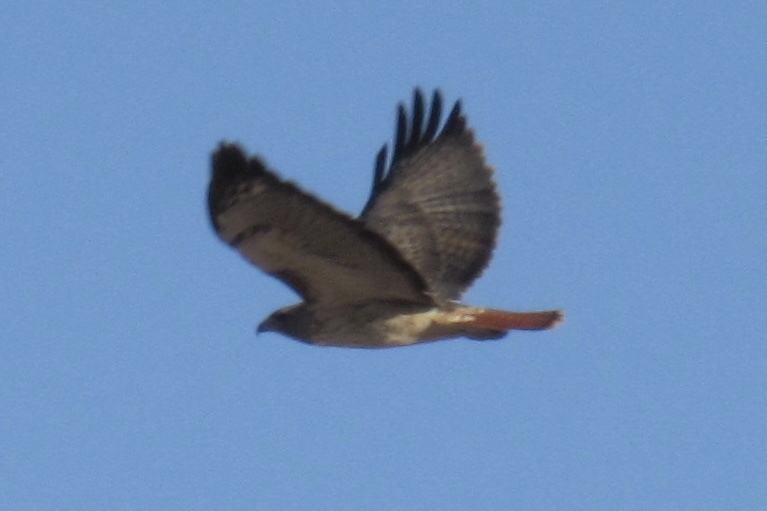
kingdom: Animalia
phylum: Chordata
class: Aves
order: Accipitriformes
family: Accipitridae
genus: Buteo
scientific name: Buteo jamaicensis
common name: Red-tailed hawk
